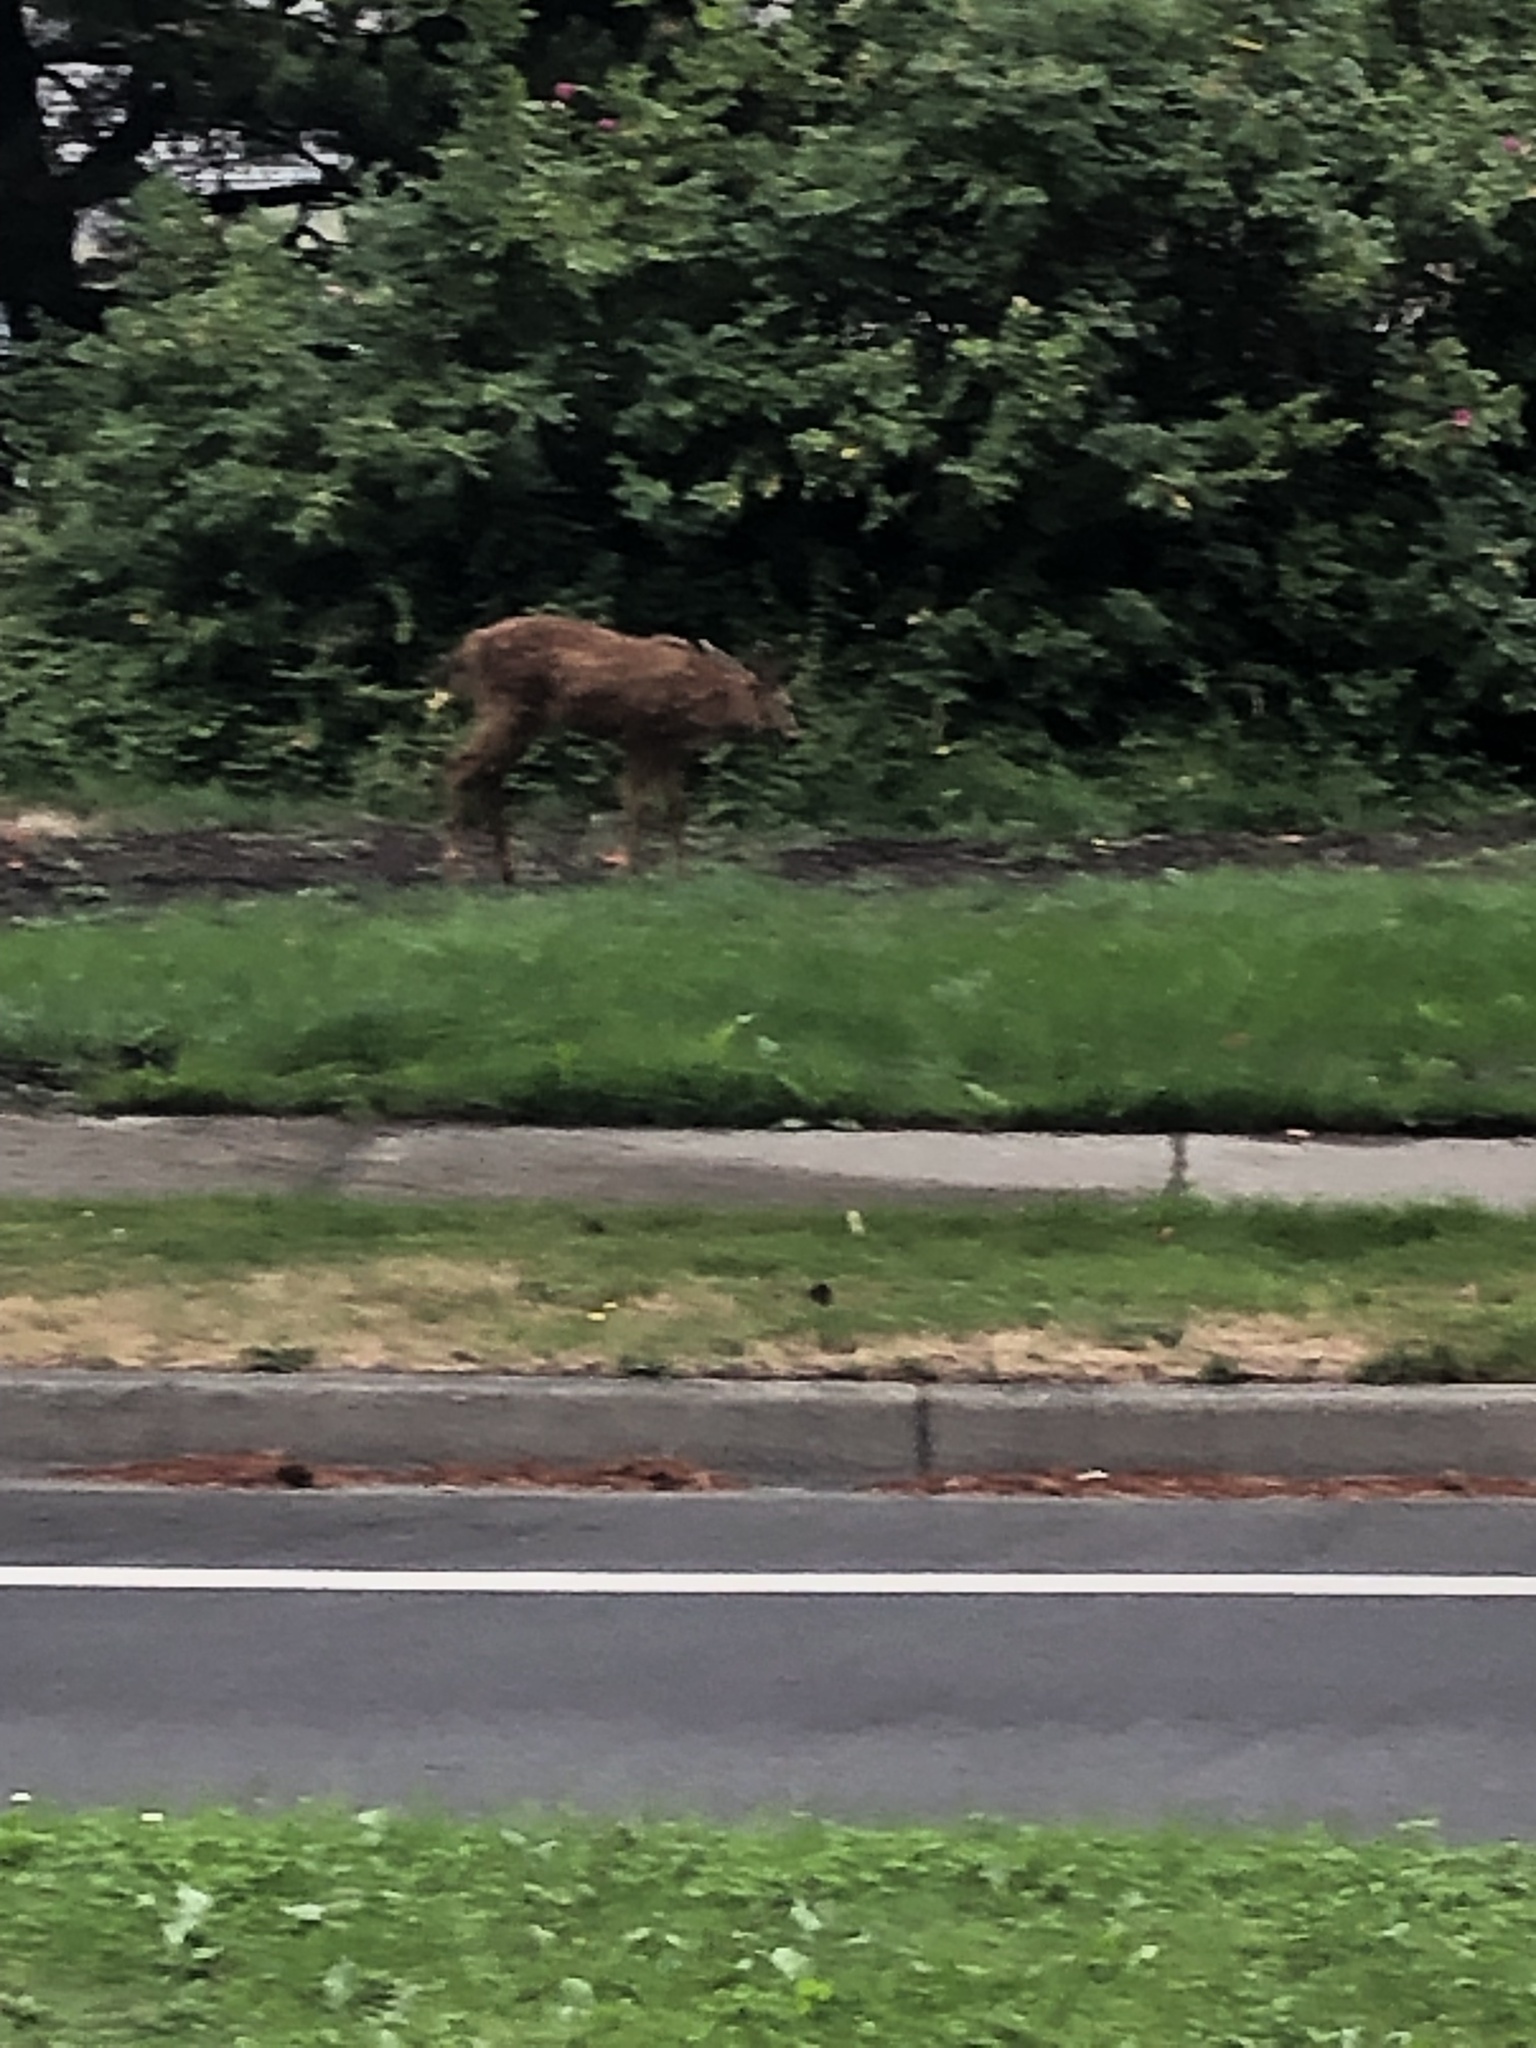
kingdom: Animalia
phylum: Chordata
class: Mammalia
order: Artiodactyla
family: Cervidae
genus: Odocoileus
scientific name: Odocoileus hemionus
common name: Mule deer
